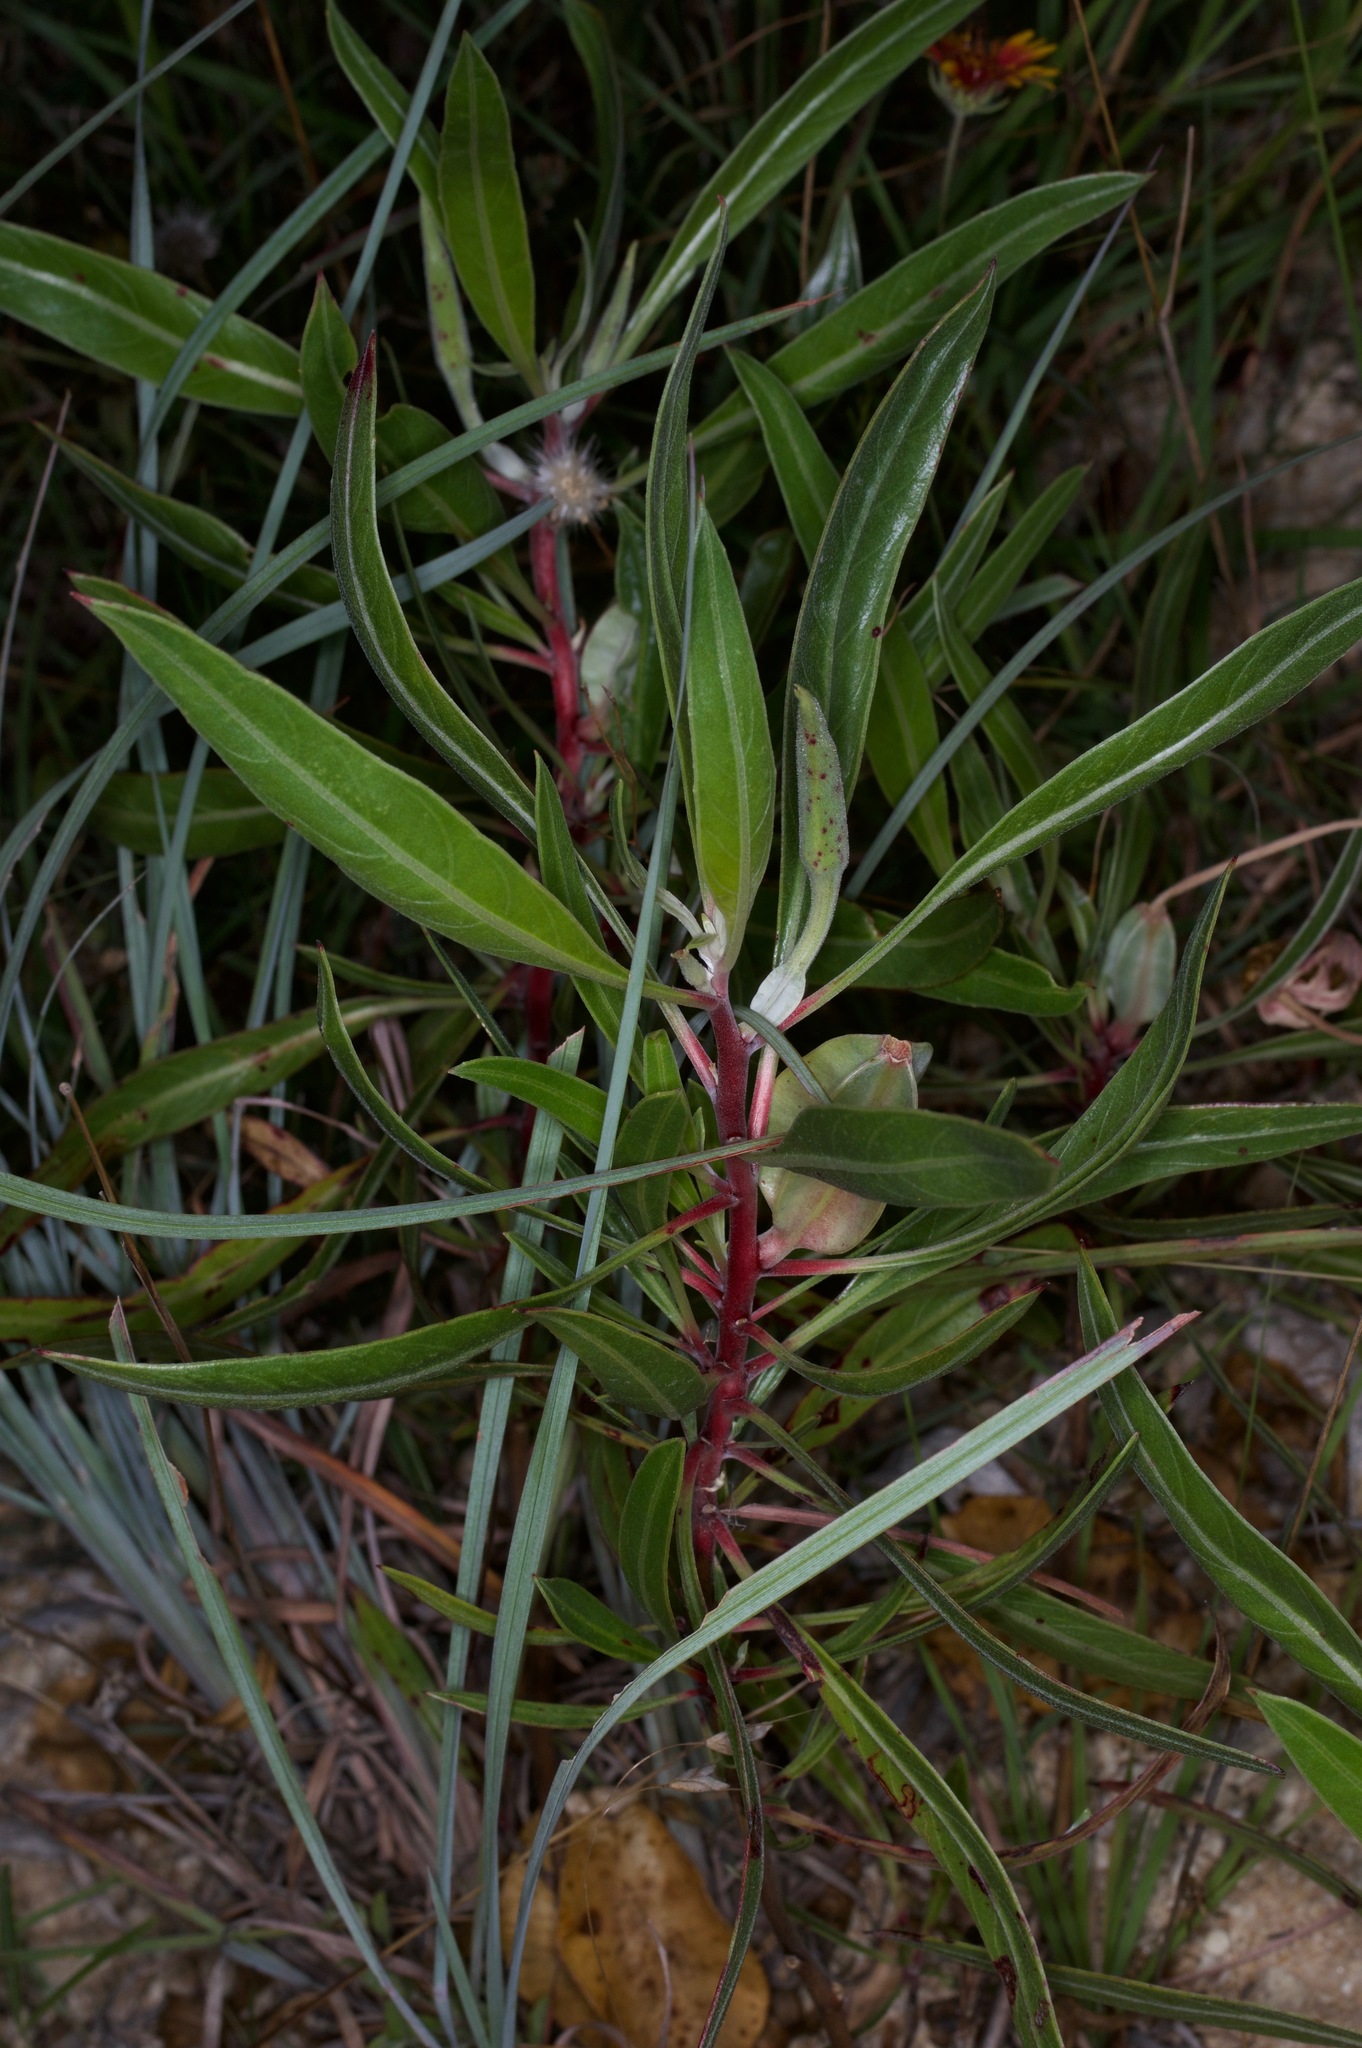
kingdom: Plantae
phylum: Tracheophyta
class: Magnoliopsida
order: Myrtales
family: Onagraceae
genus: Oenothera
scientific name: Oenothera macrocarpa
